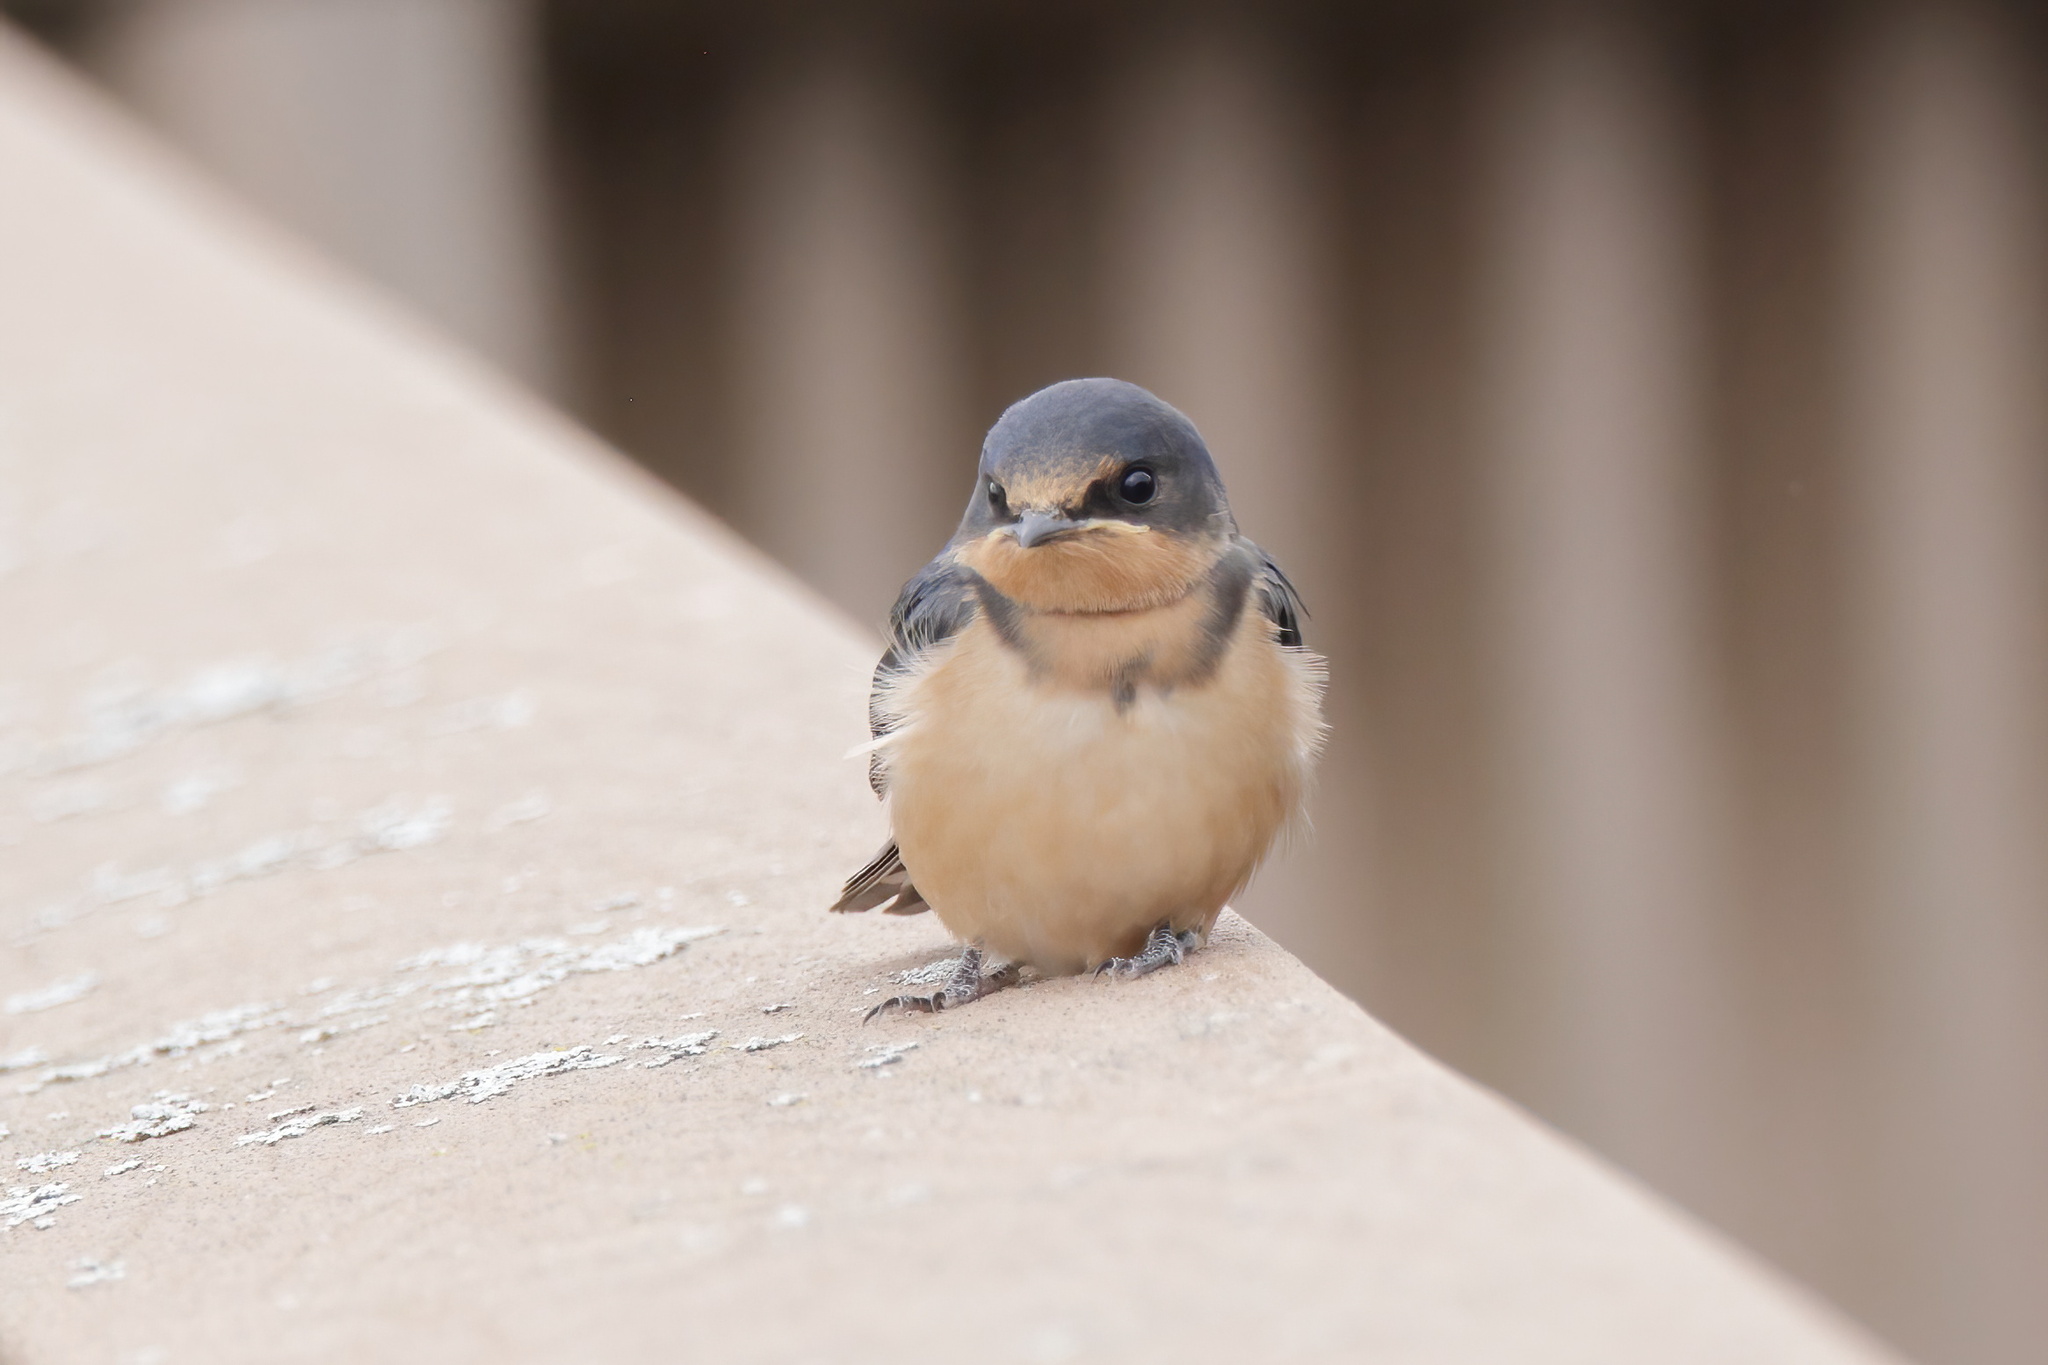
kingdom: Animalia
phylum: Chordata
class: Aves
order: Passeriformes
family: Hirundinidae
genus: Hirundo
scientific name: Hirundo rustica
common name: Barn swallow
